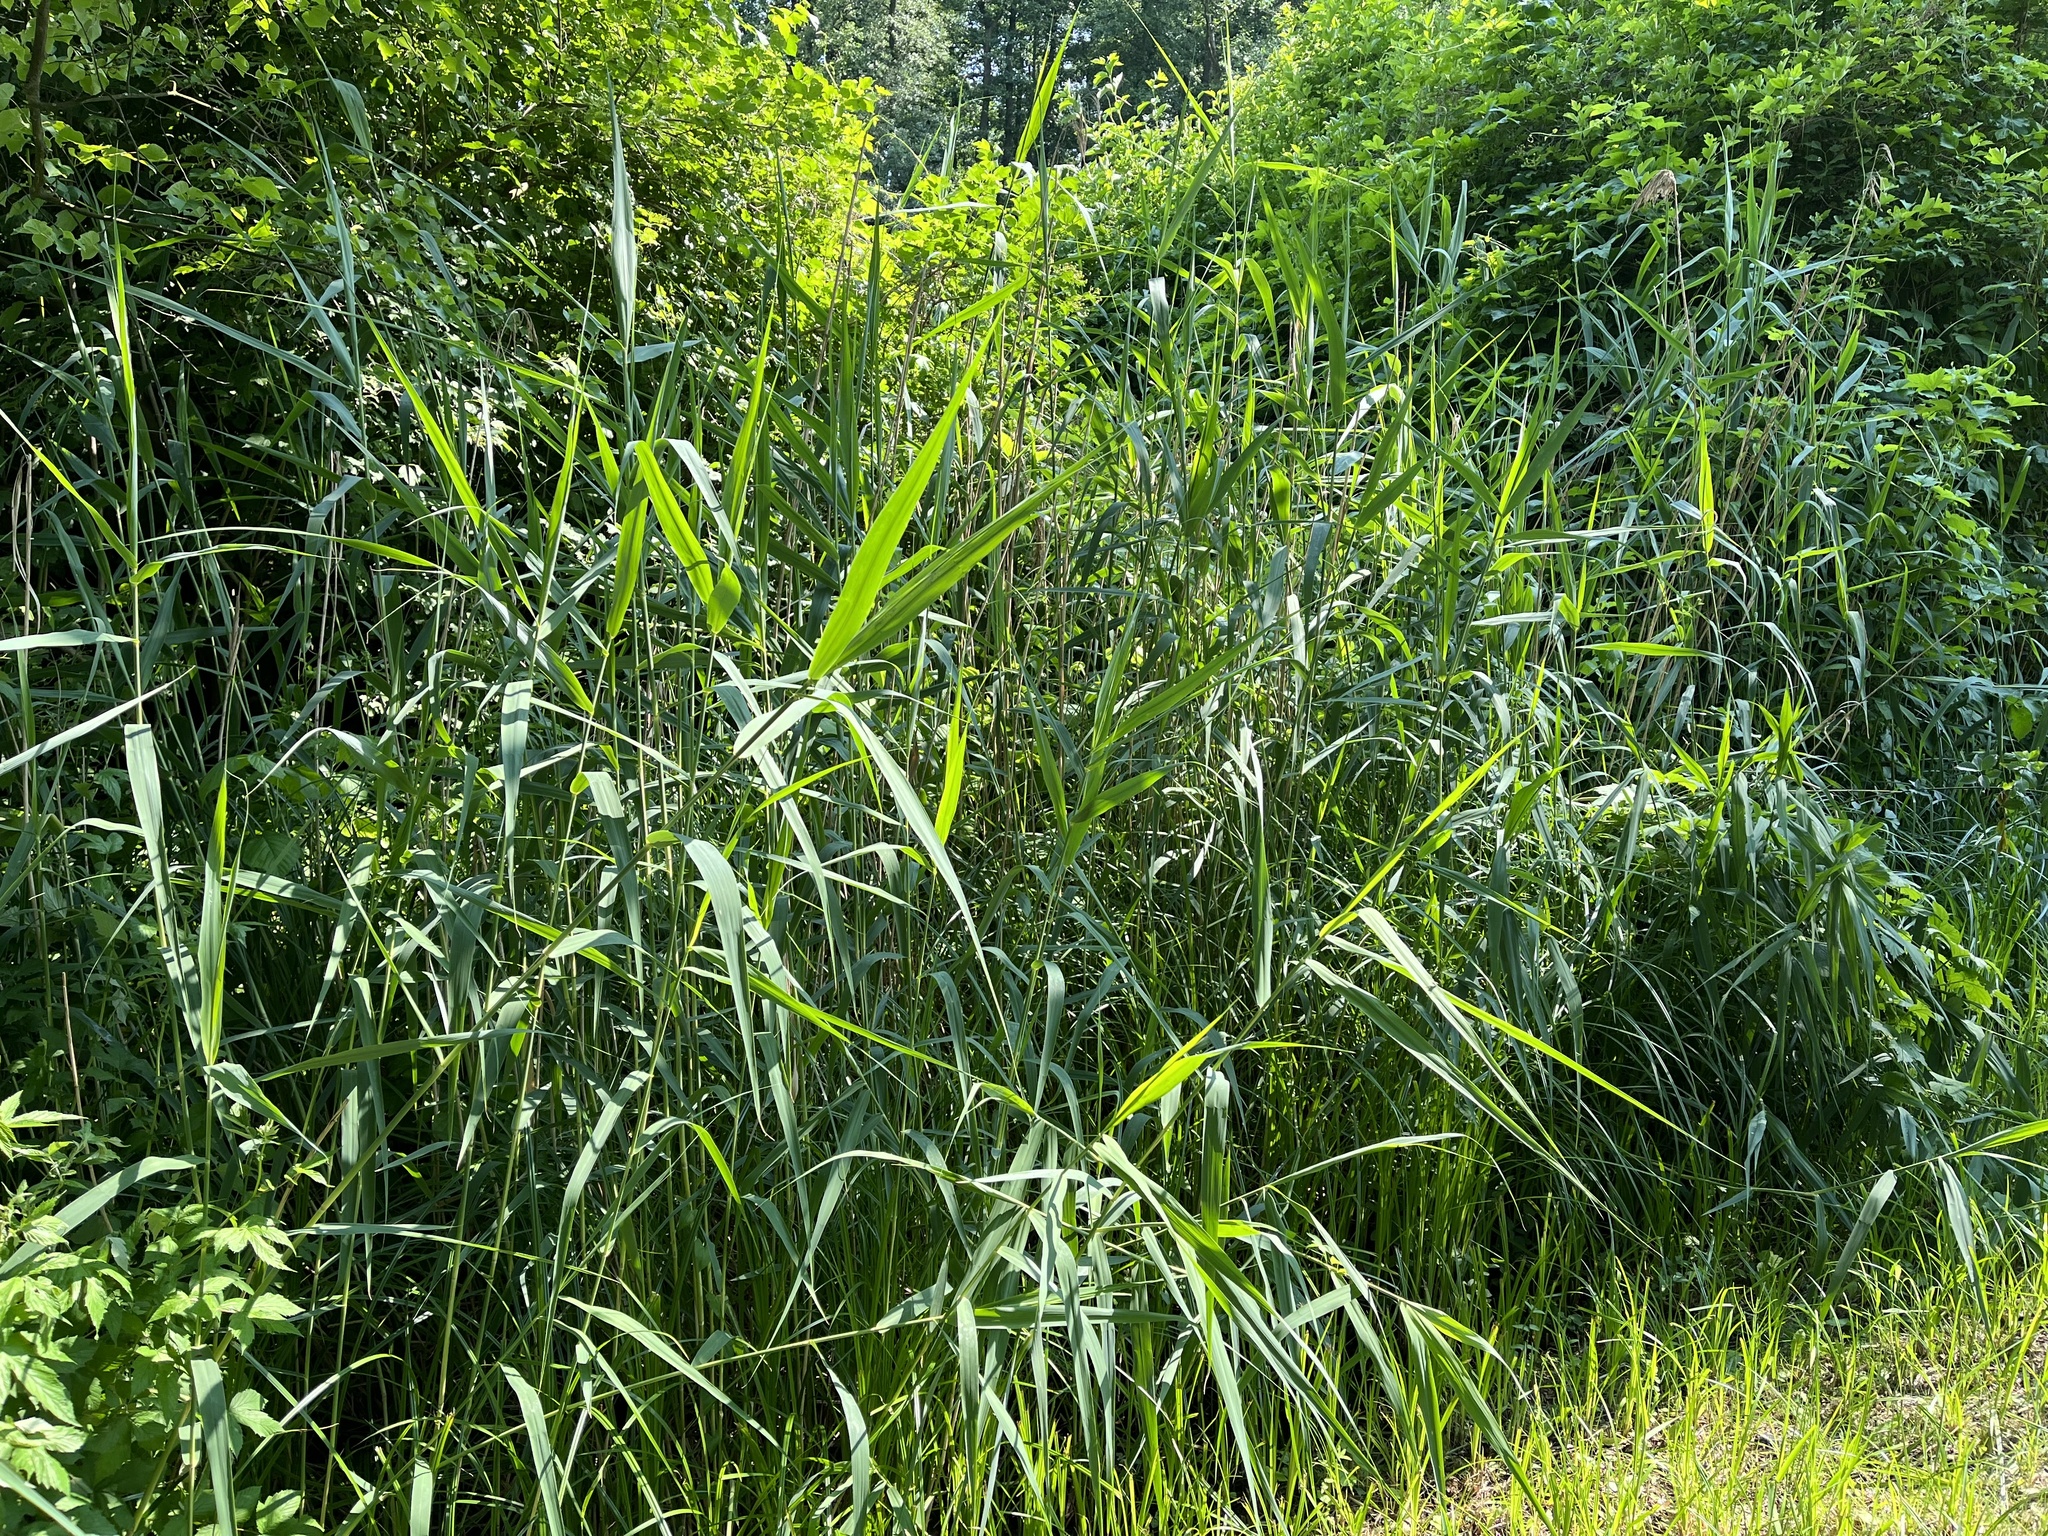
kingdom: Plantae
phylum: Tracheophyta
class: Liliopsida
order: Poales
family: Poaceae
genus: Phragmites
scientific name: Phragmites australis
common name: Common reed
